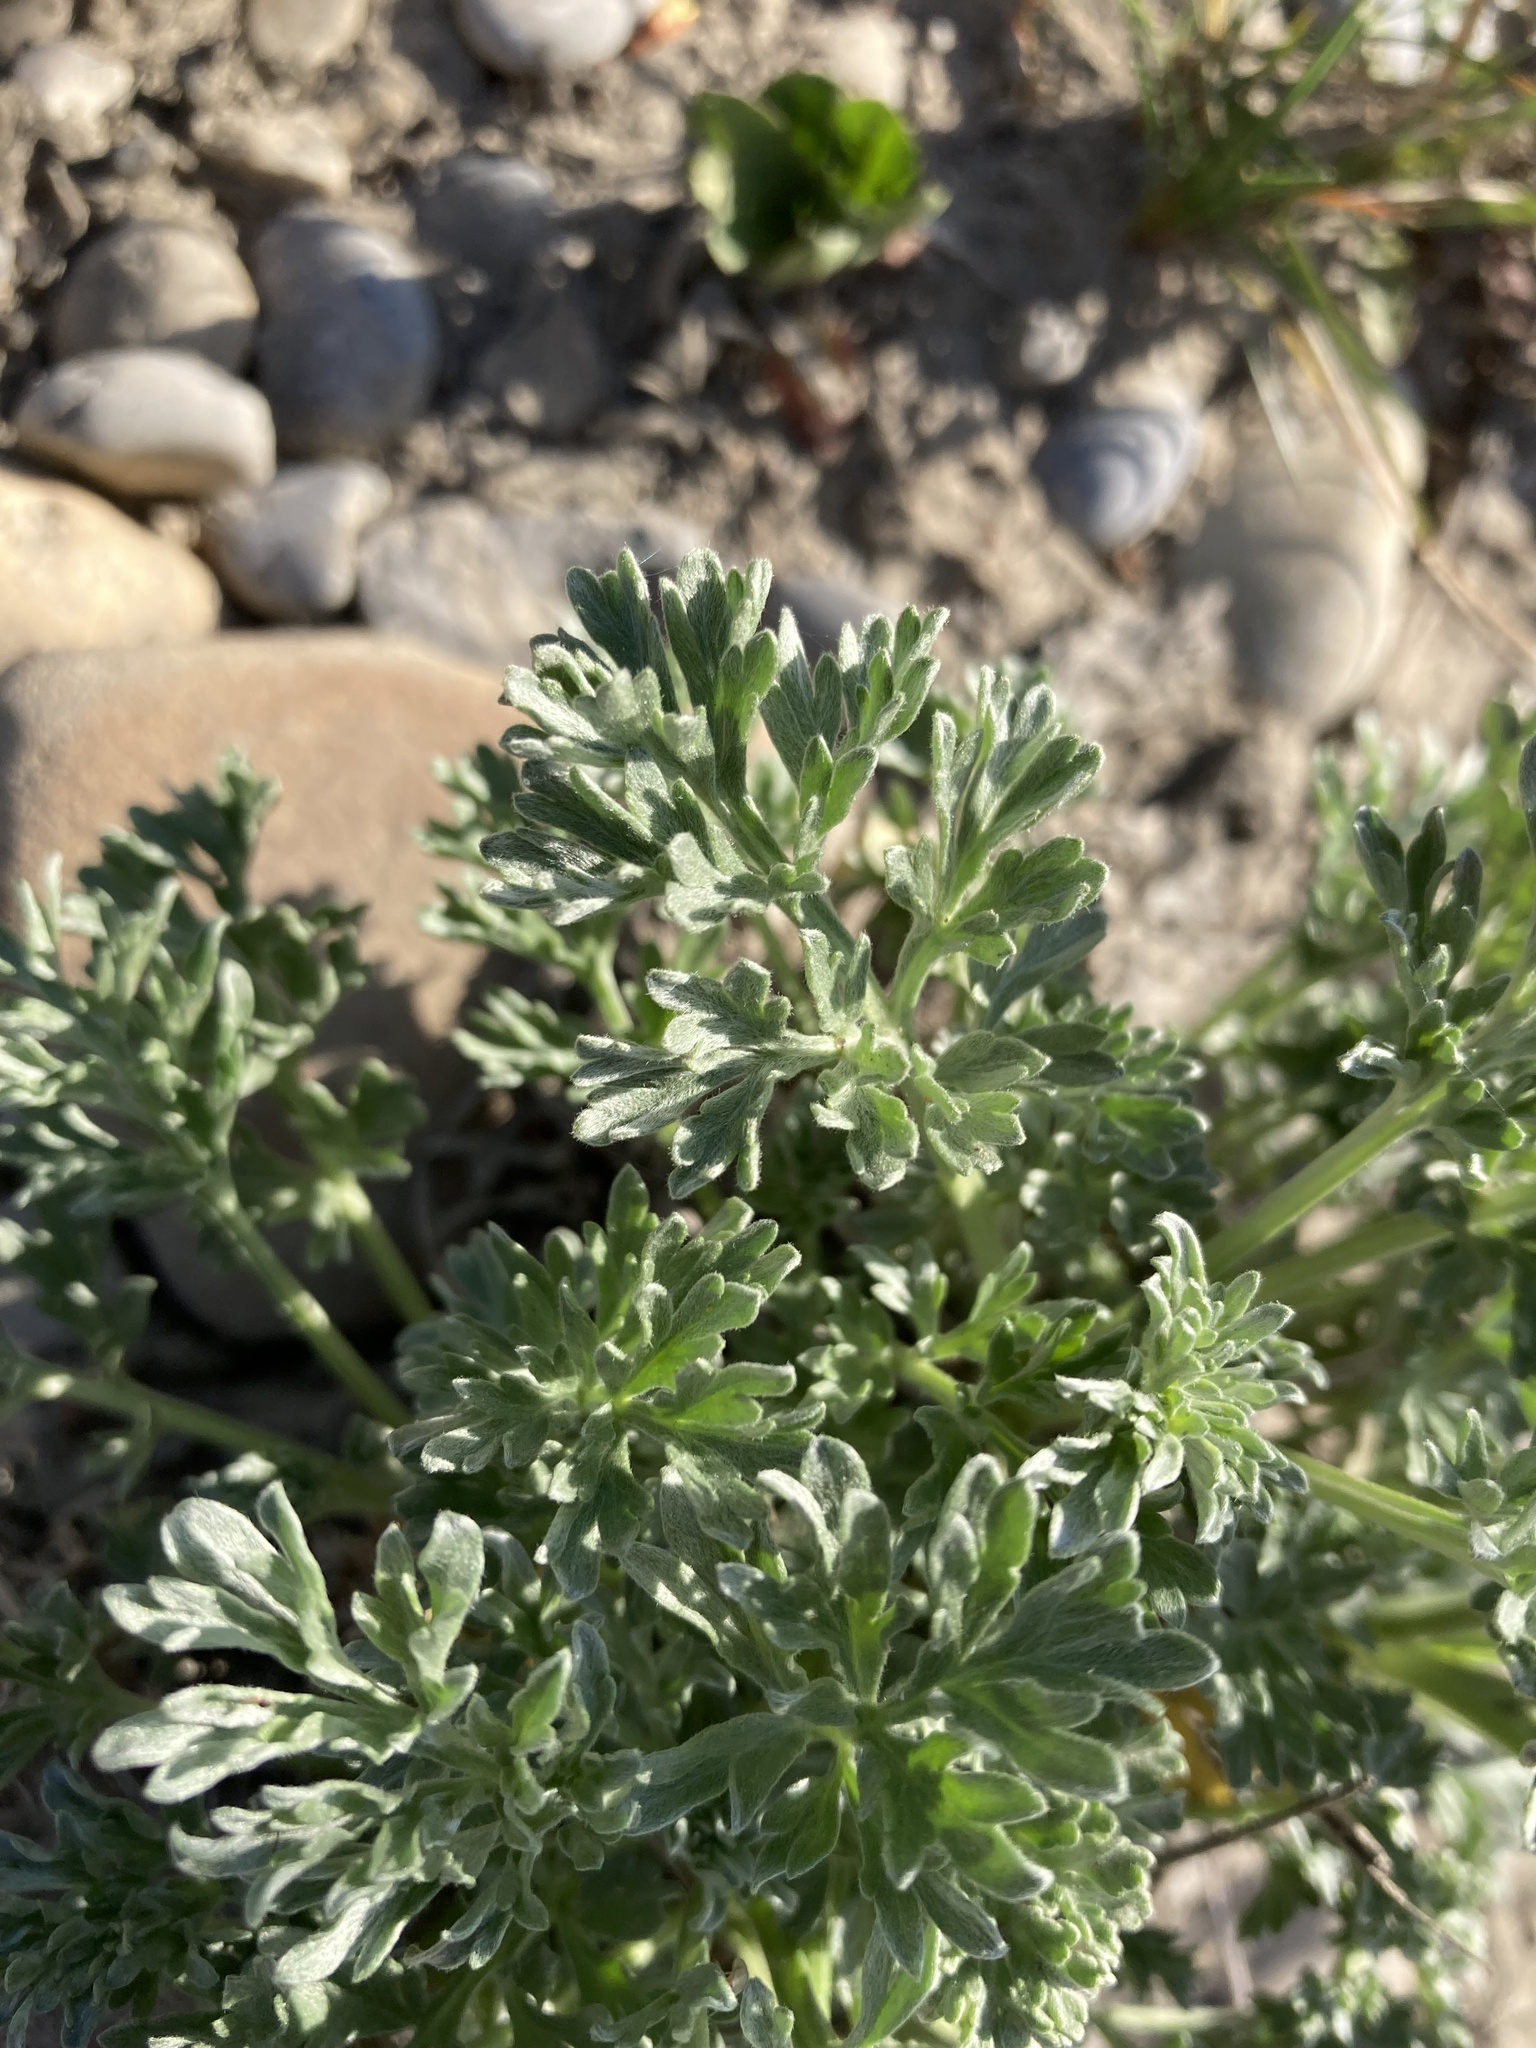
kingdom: Plantae
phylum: Tracheophyta
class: Magnoliopsida
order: Asterales
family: Asteraceae
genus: Artemisia
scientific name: Artemisia absinthium
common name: Wormwood
